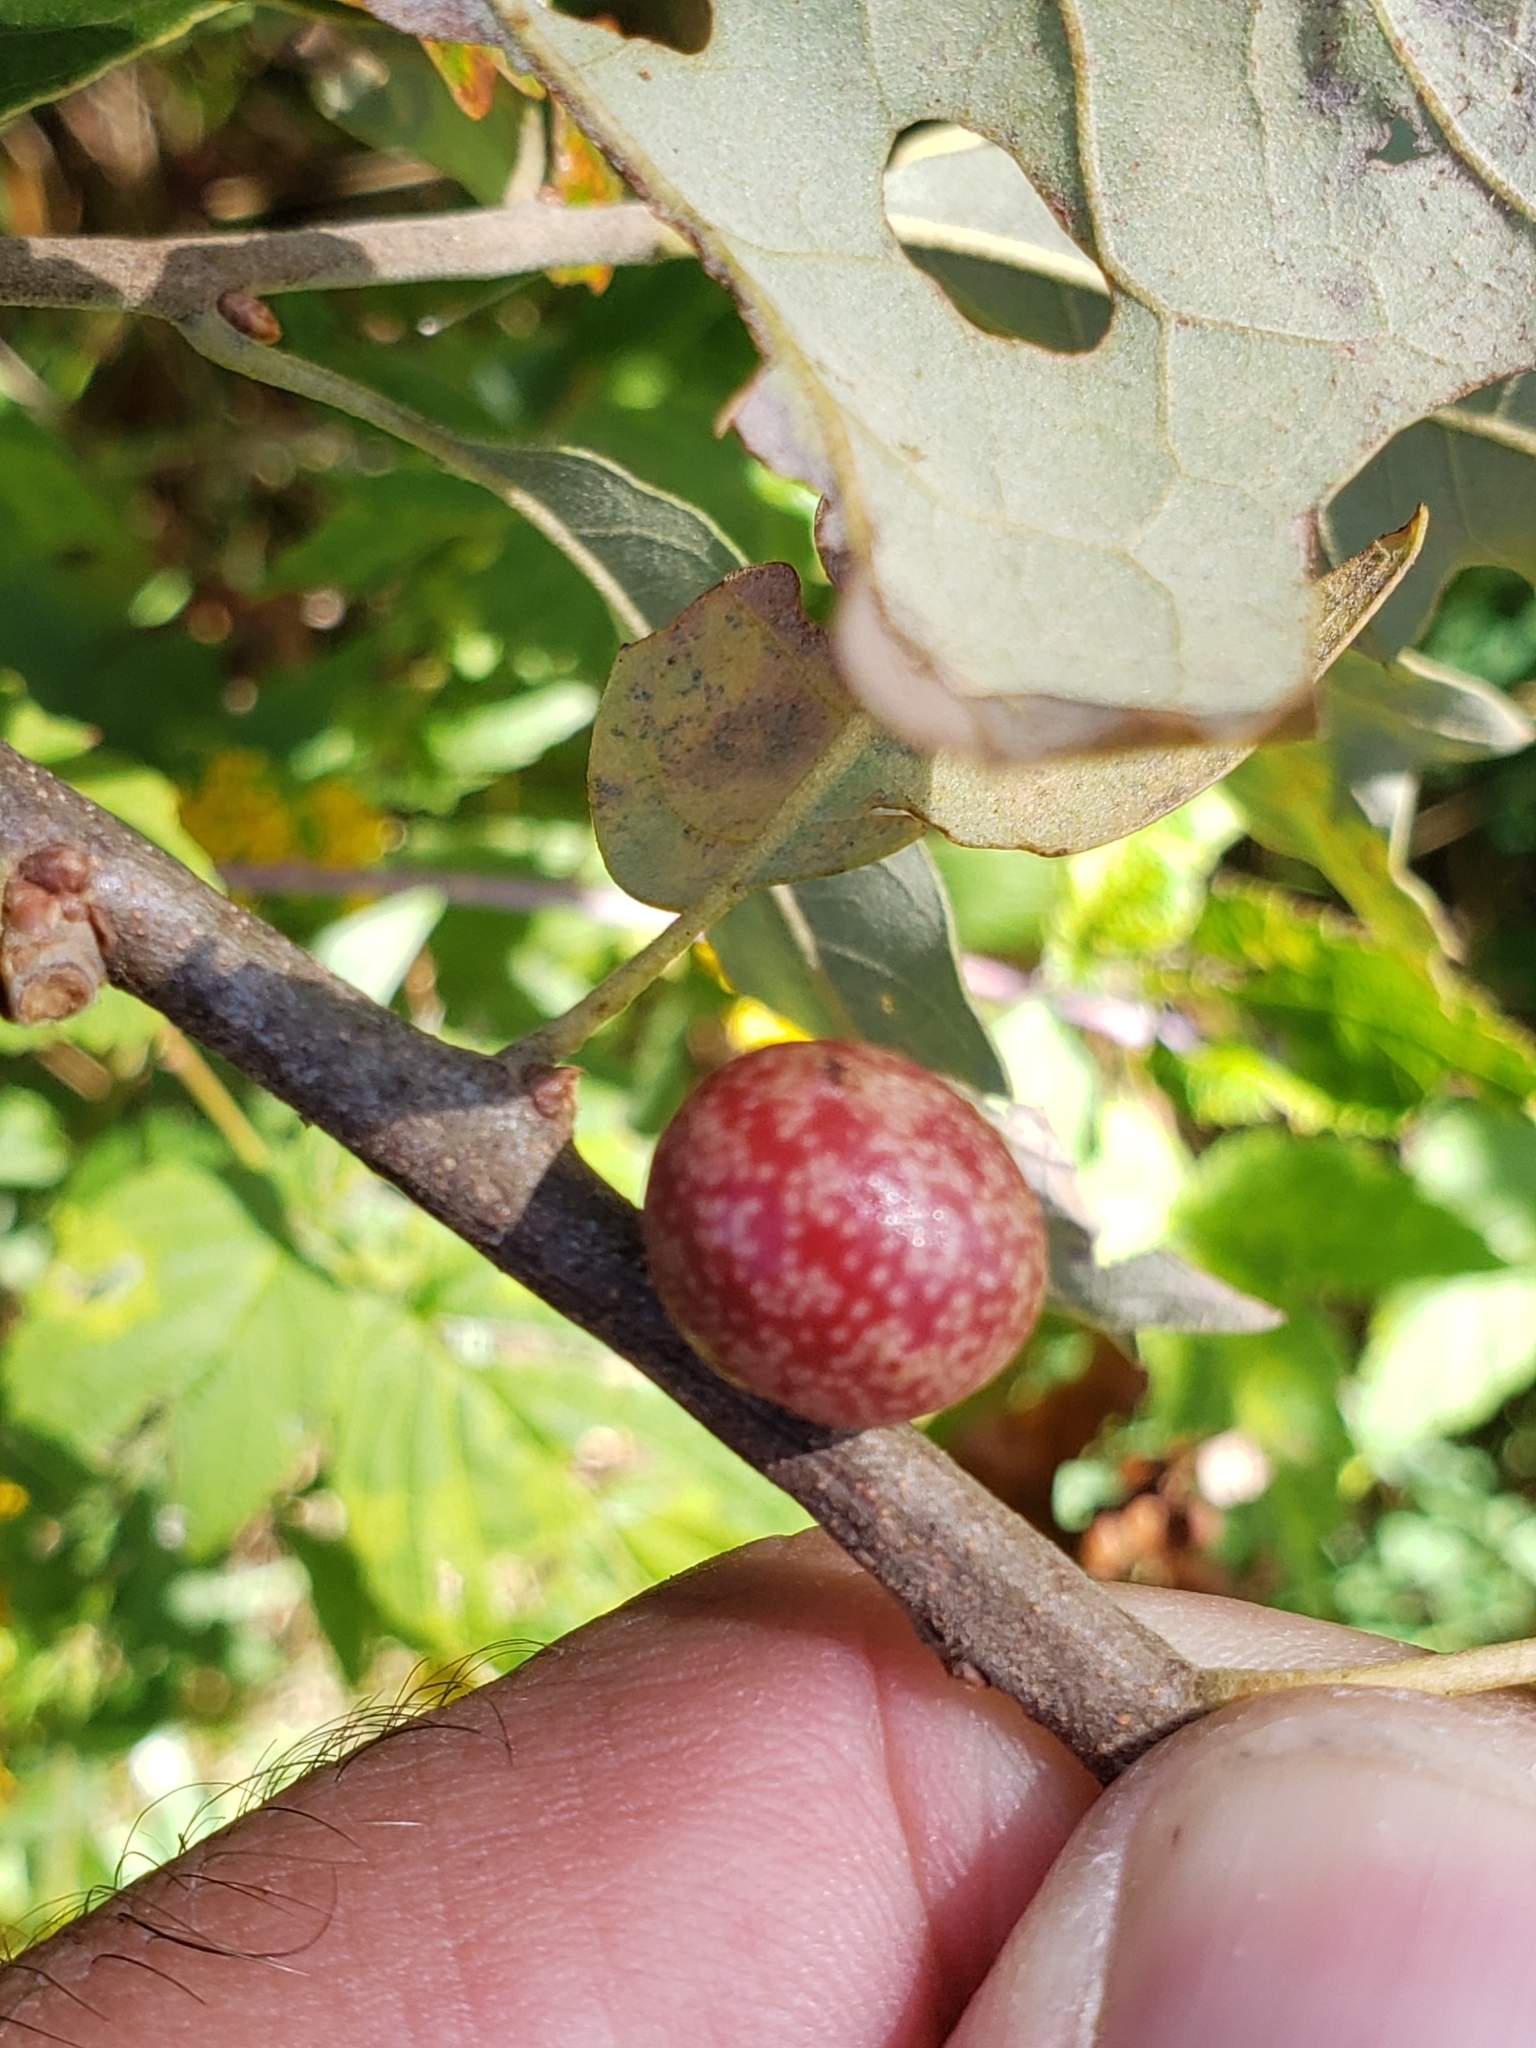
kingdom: Animalia
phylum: Arthropoda
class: Insecta
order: Hymenoptera
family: Cynipidae
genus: Kokkocynips
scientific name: Kokkocynips imbricariae
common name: Banded bullet gall wasp
